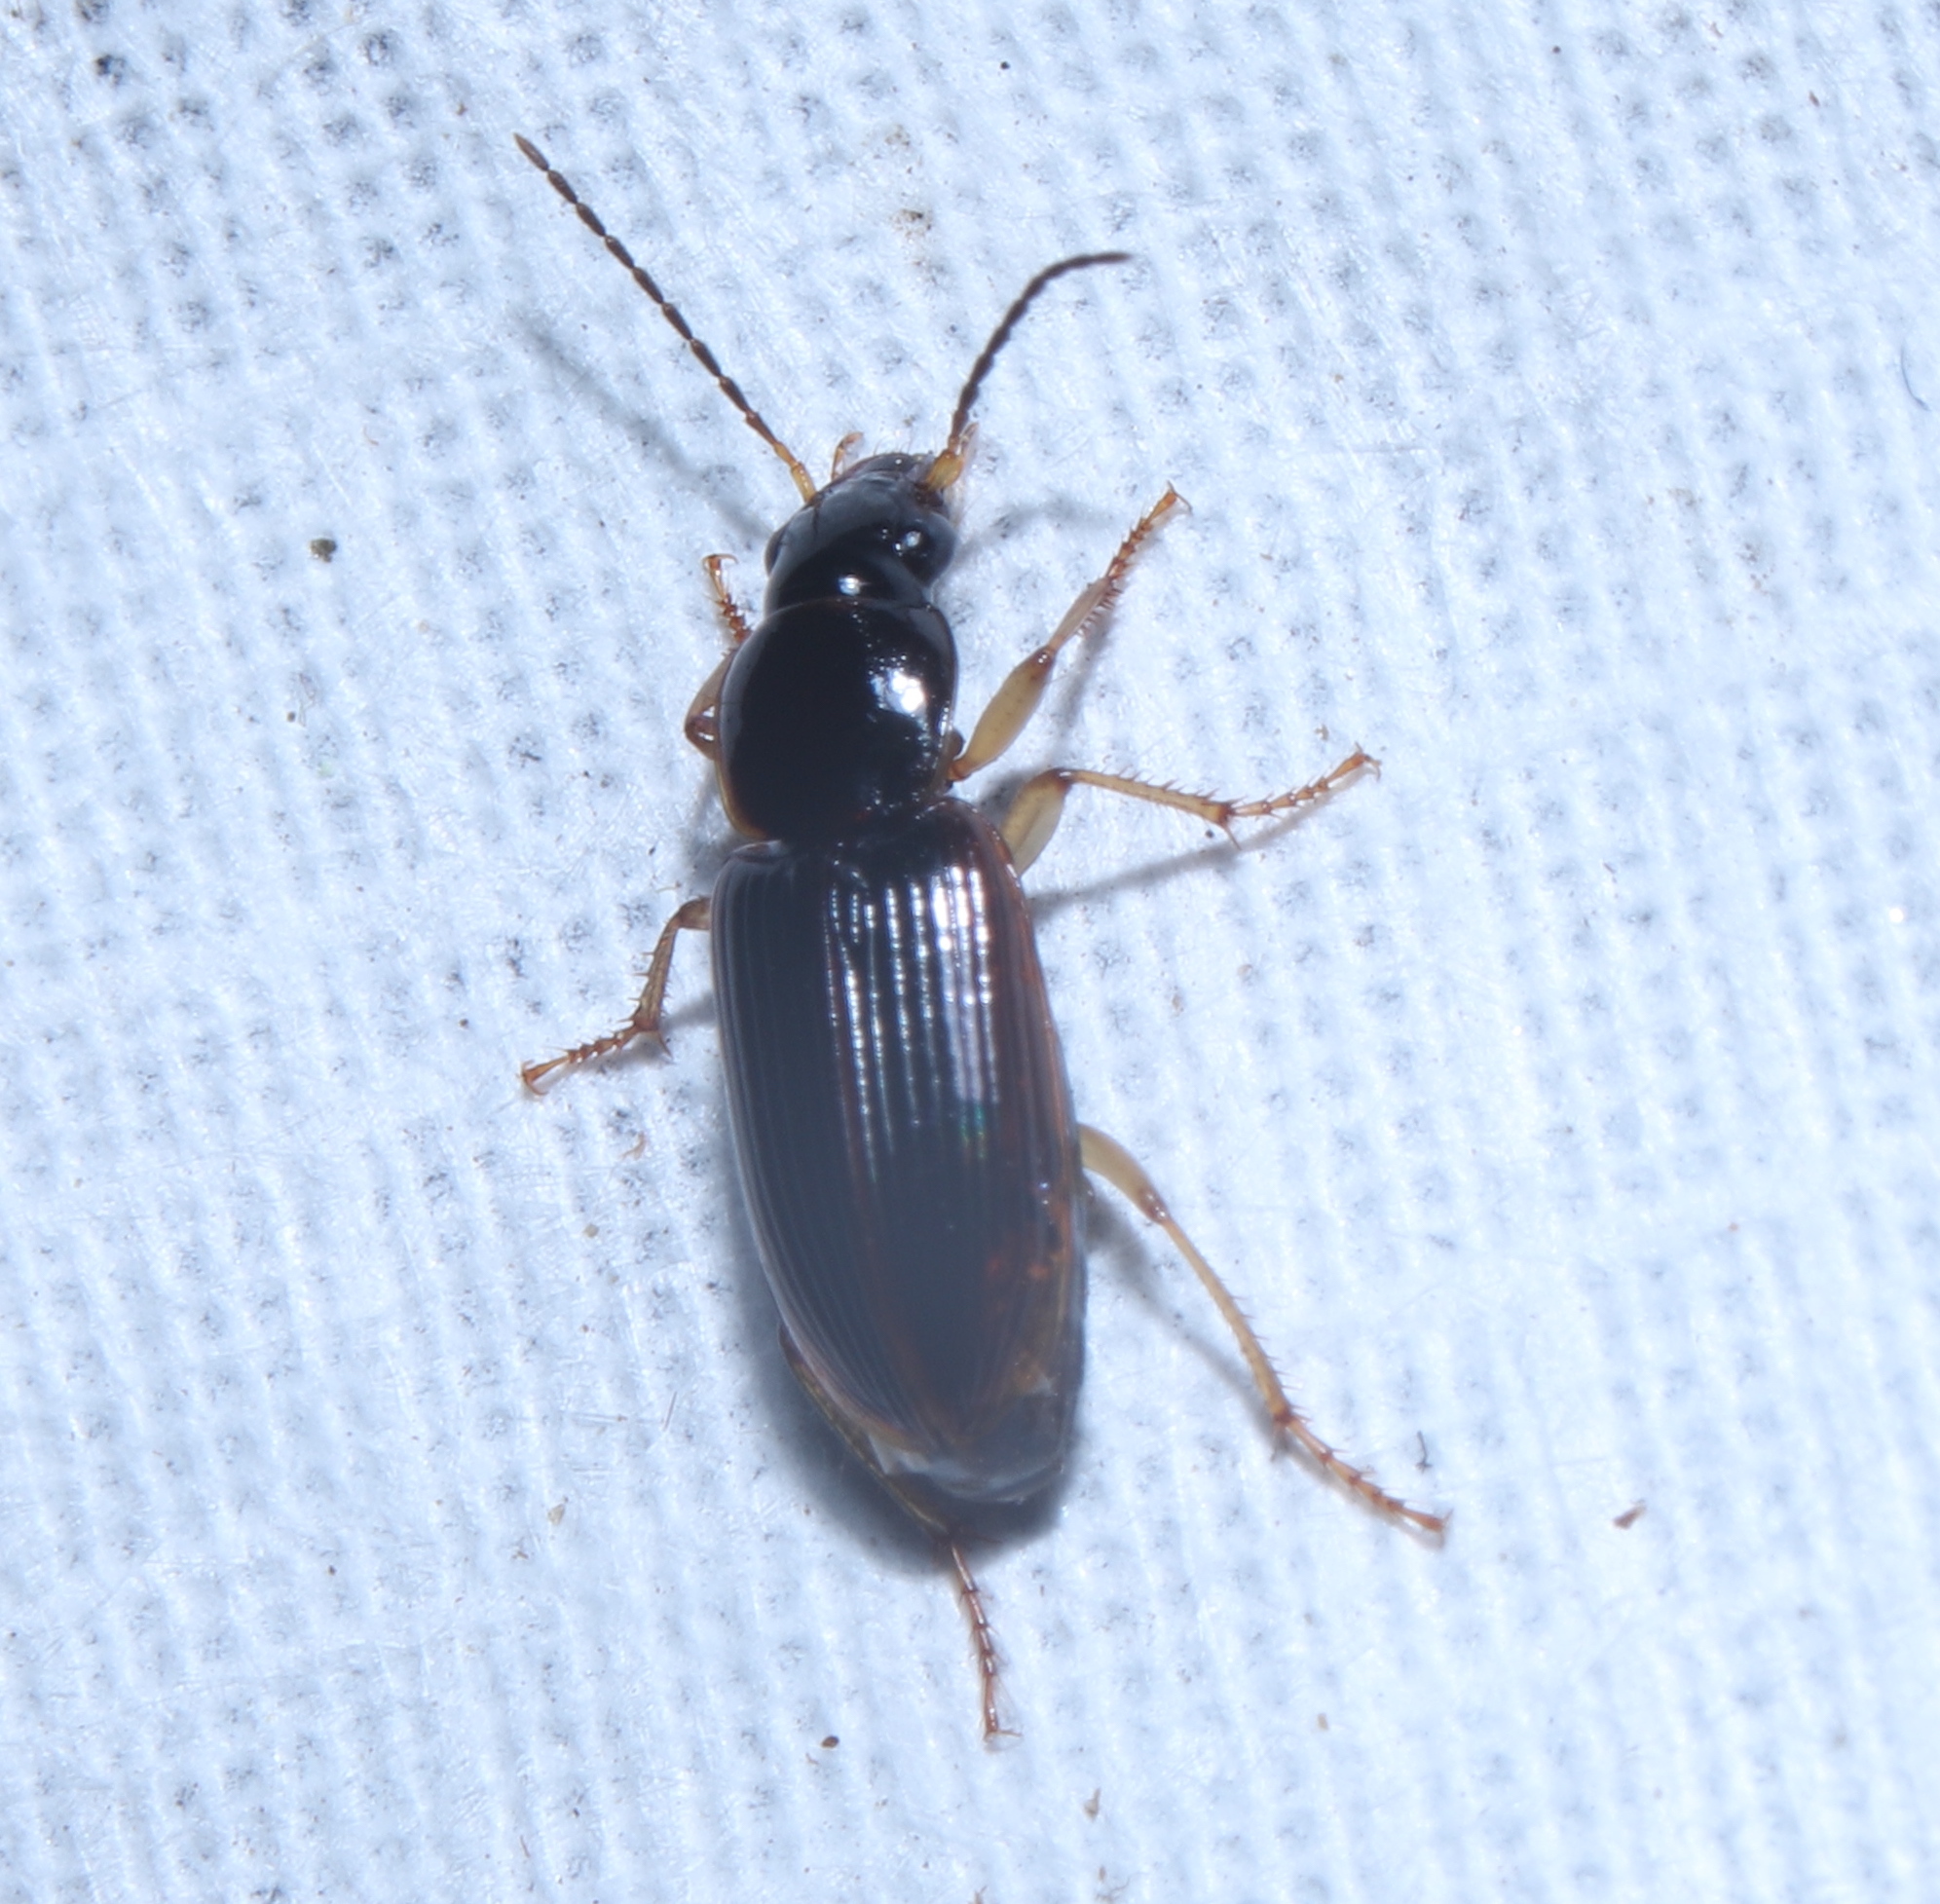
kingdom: Animalia
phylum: Arthropoda
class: Insecta
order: Coleoptera
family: Carabidae
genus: Stenolophus
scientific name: Stenolophus ochropezus
